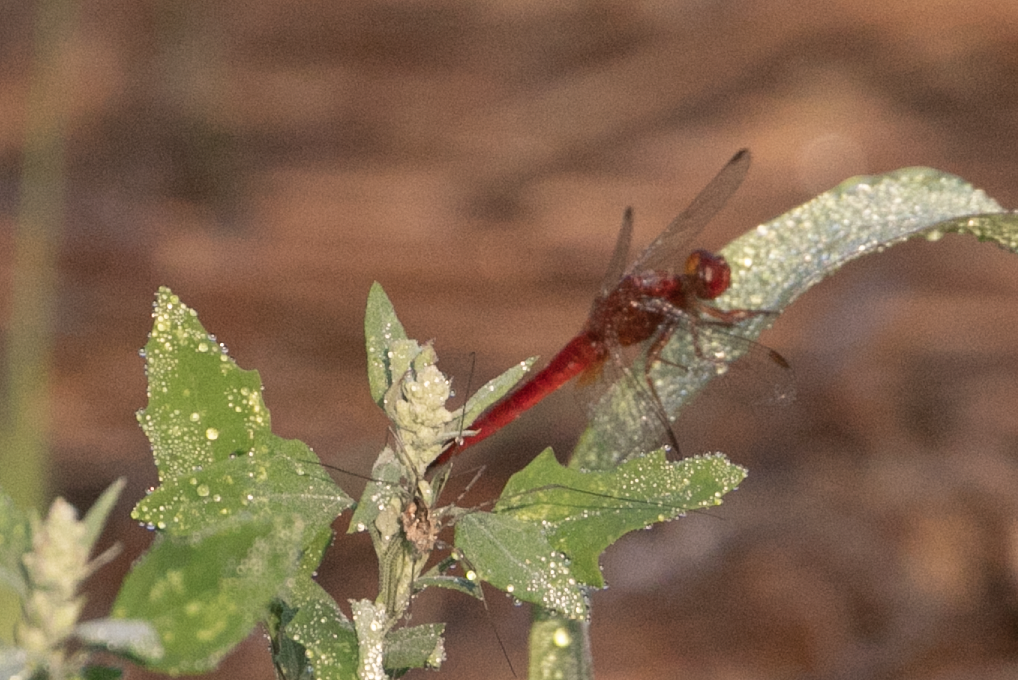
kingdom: Animalia
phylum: Arthropoda
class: Insecta
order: Odonata
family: Libellulidae
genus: Crocothemis
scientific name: Crocothemis erythraea
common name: Scarlet dragonfly
